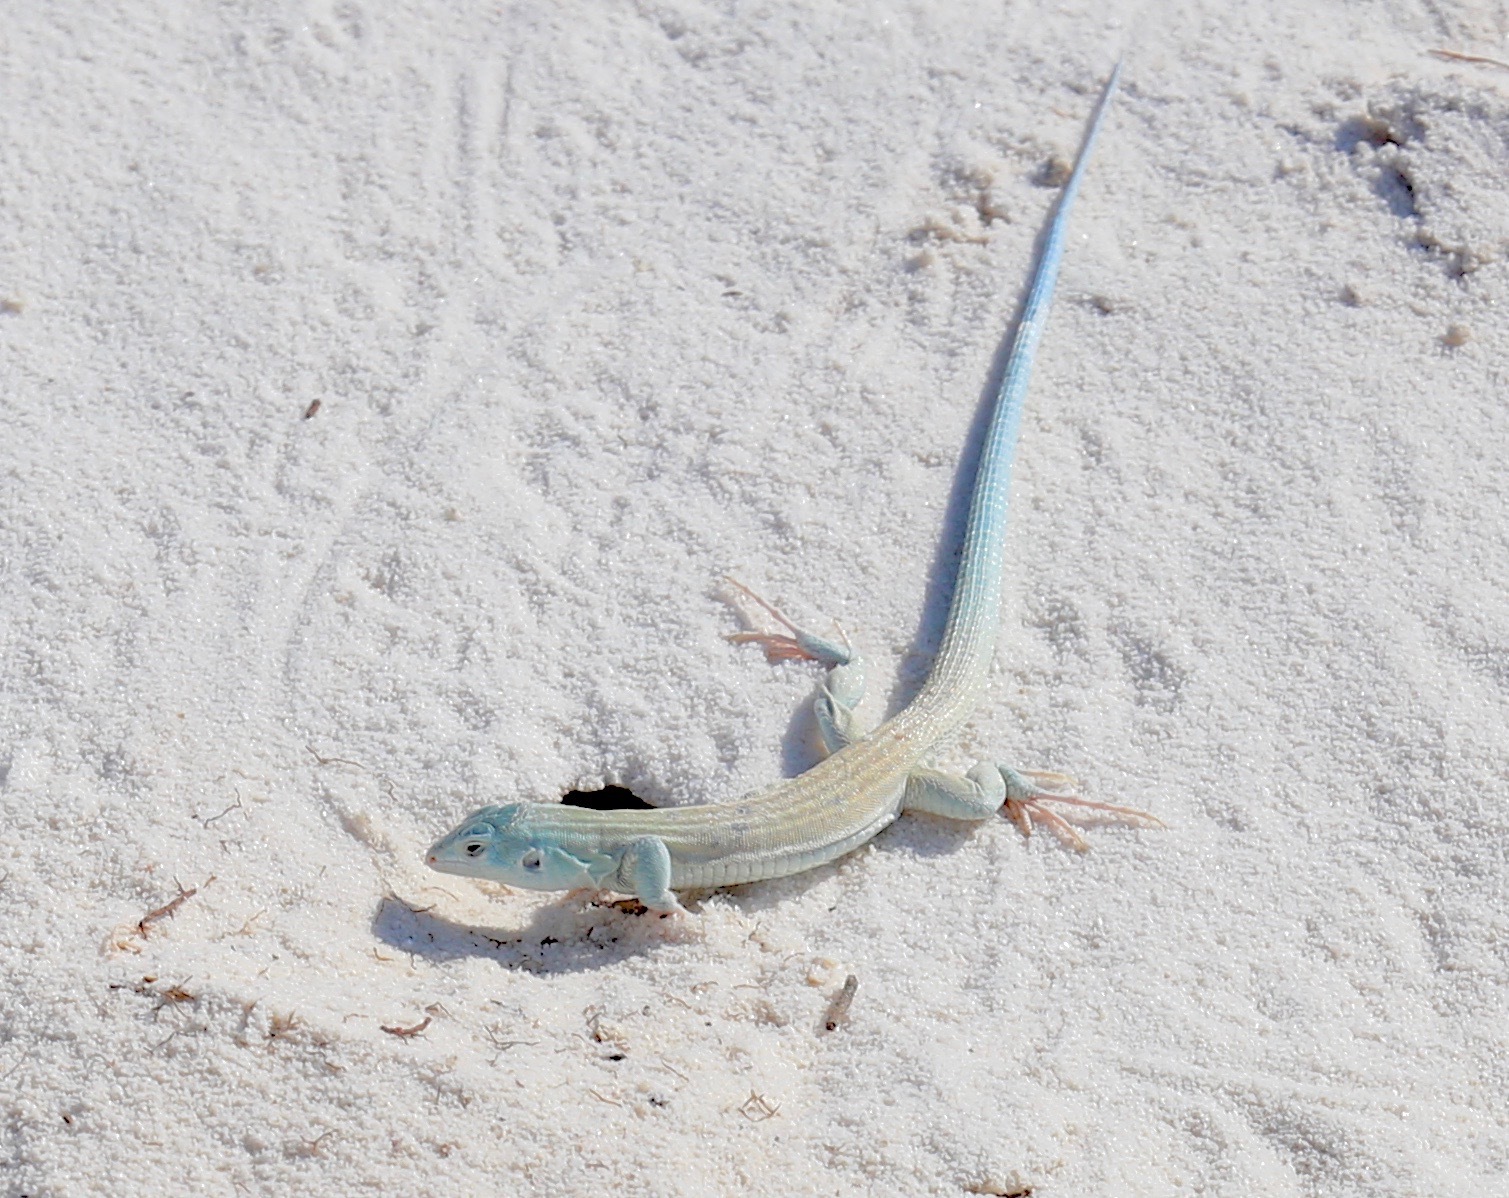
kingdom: Animalia
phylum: Chordata
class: Squamata
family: Teiidae
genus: Aspidoscelis
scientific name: Aspidoscelis inornatus
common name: Little striped whiptail
